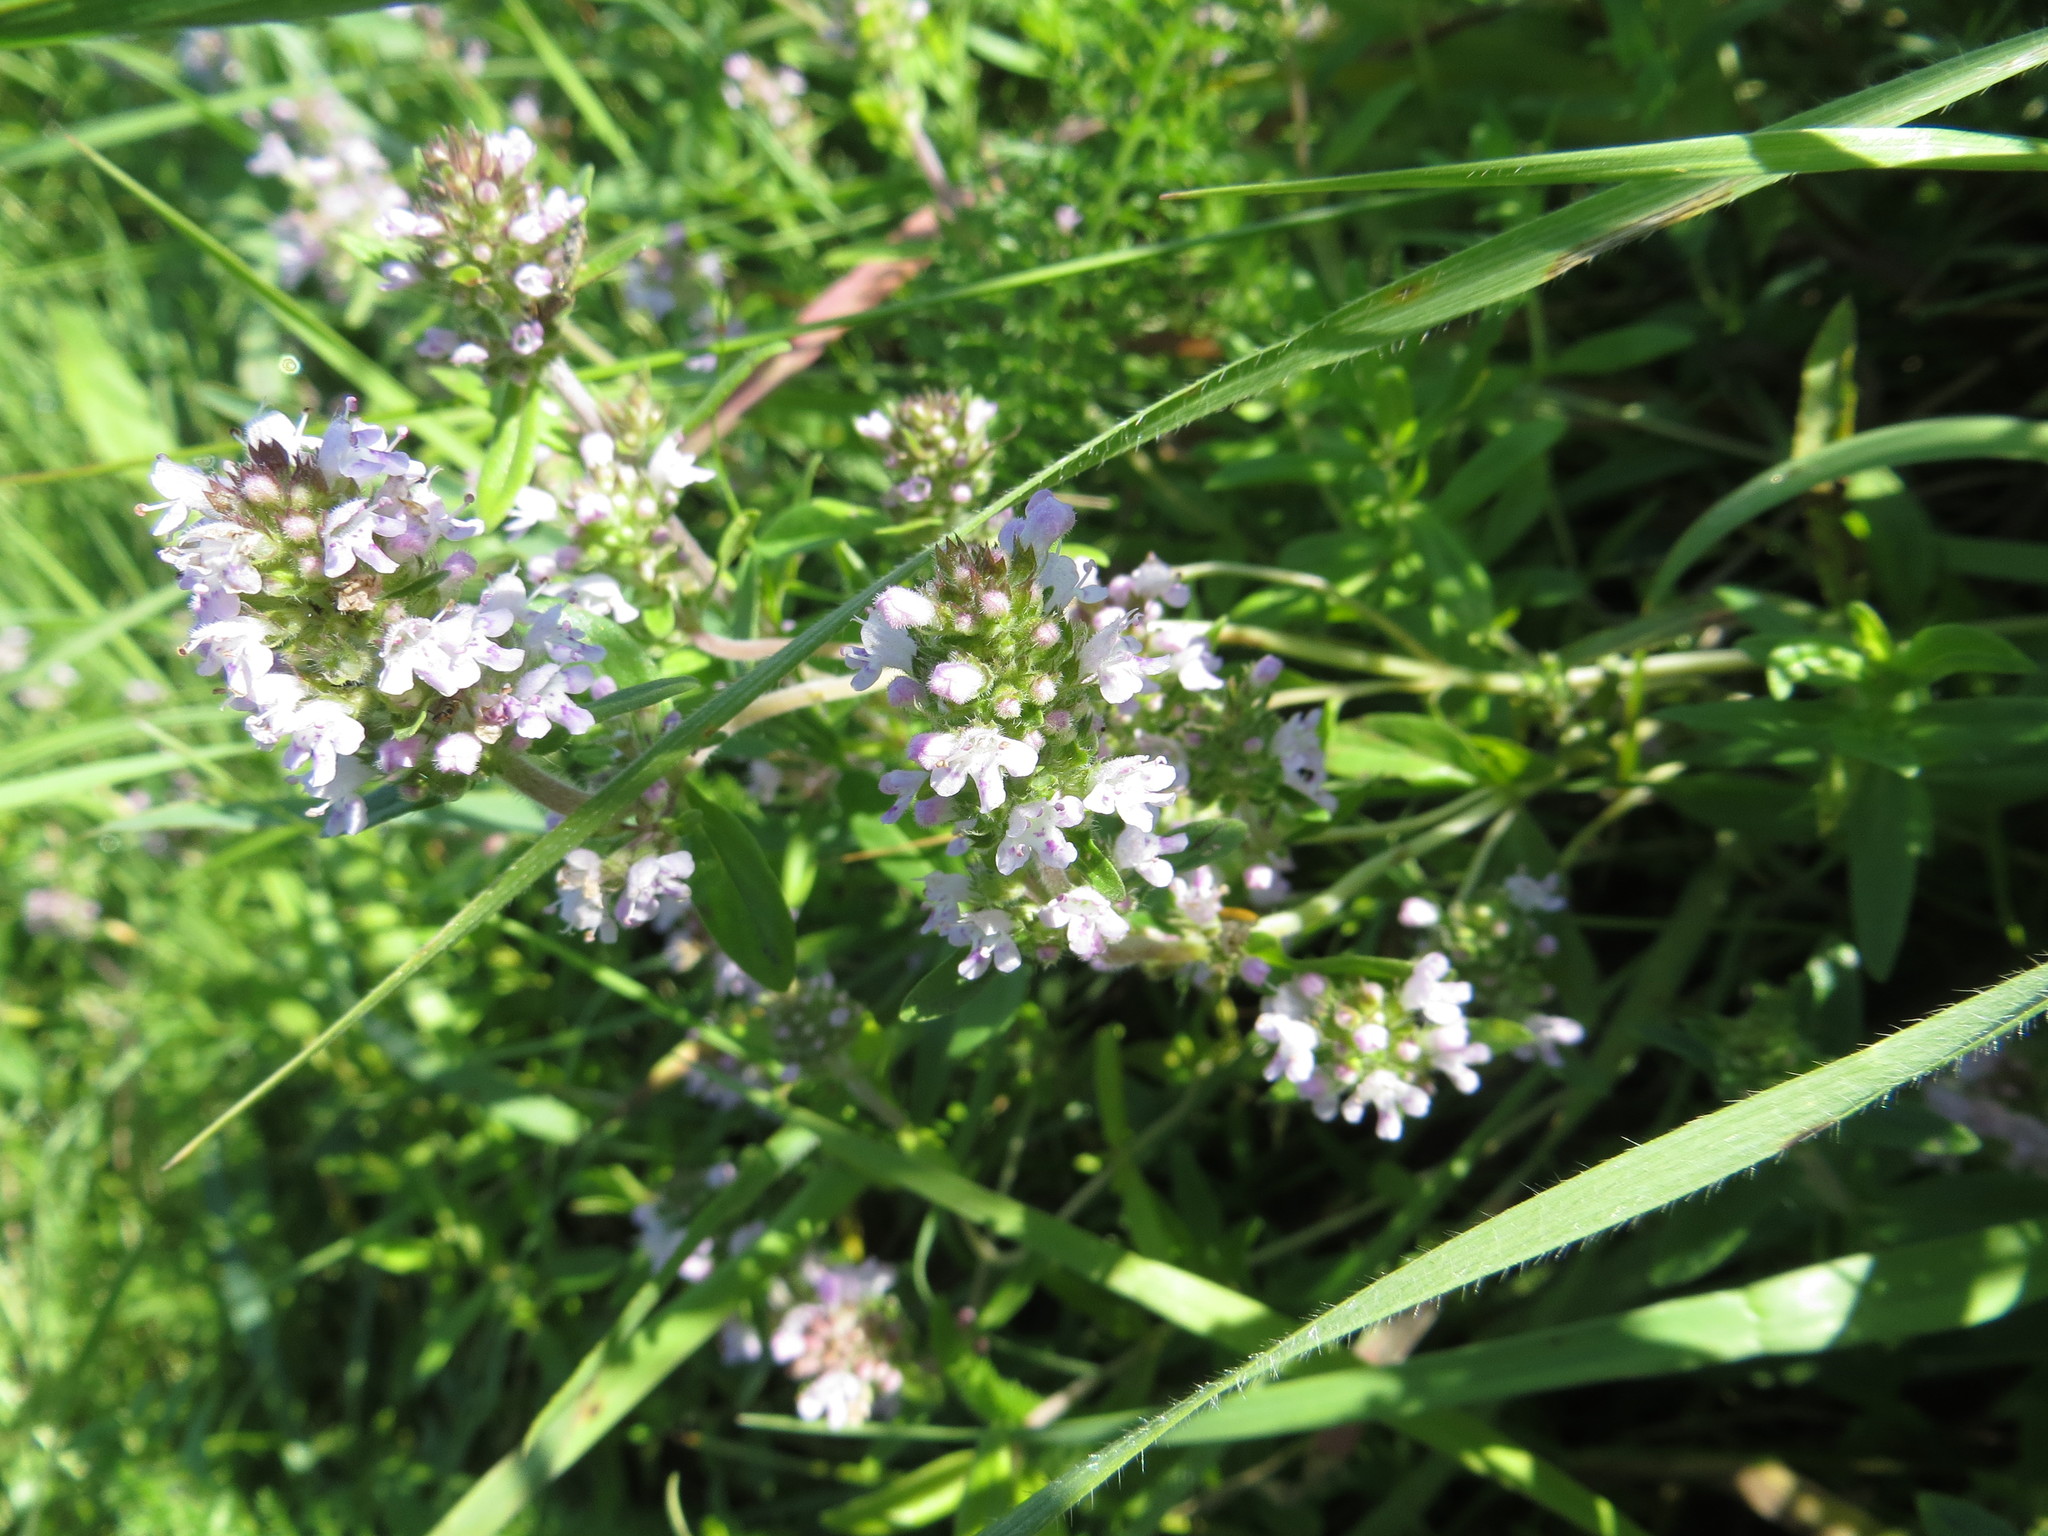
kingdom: Plantae
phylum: Tracheophyta
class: Magnoliopsida
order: Lamiales
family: Lamiaceae
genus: Thymus
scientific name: Thymus pannonicus
